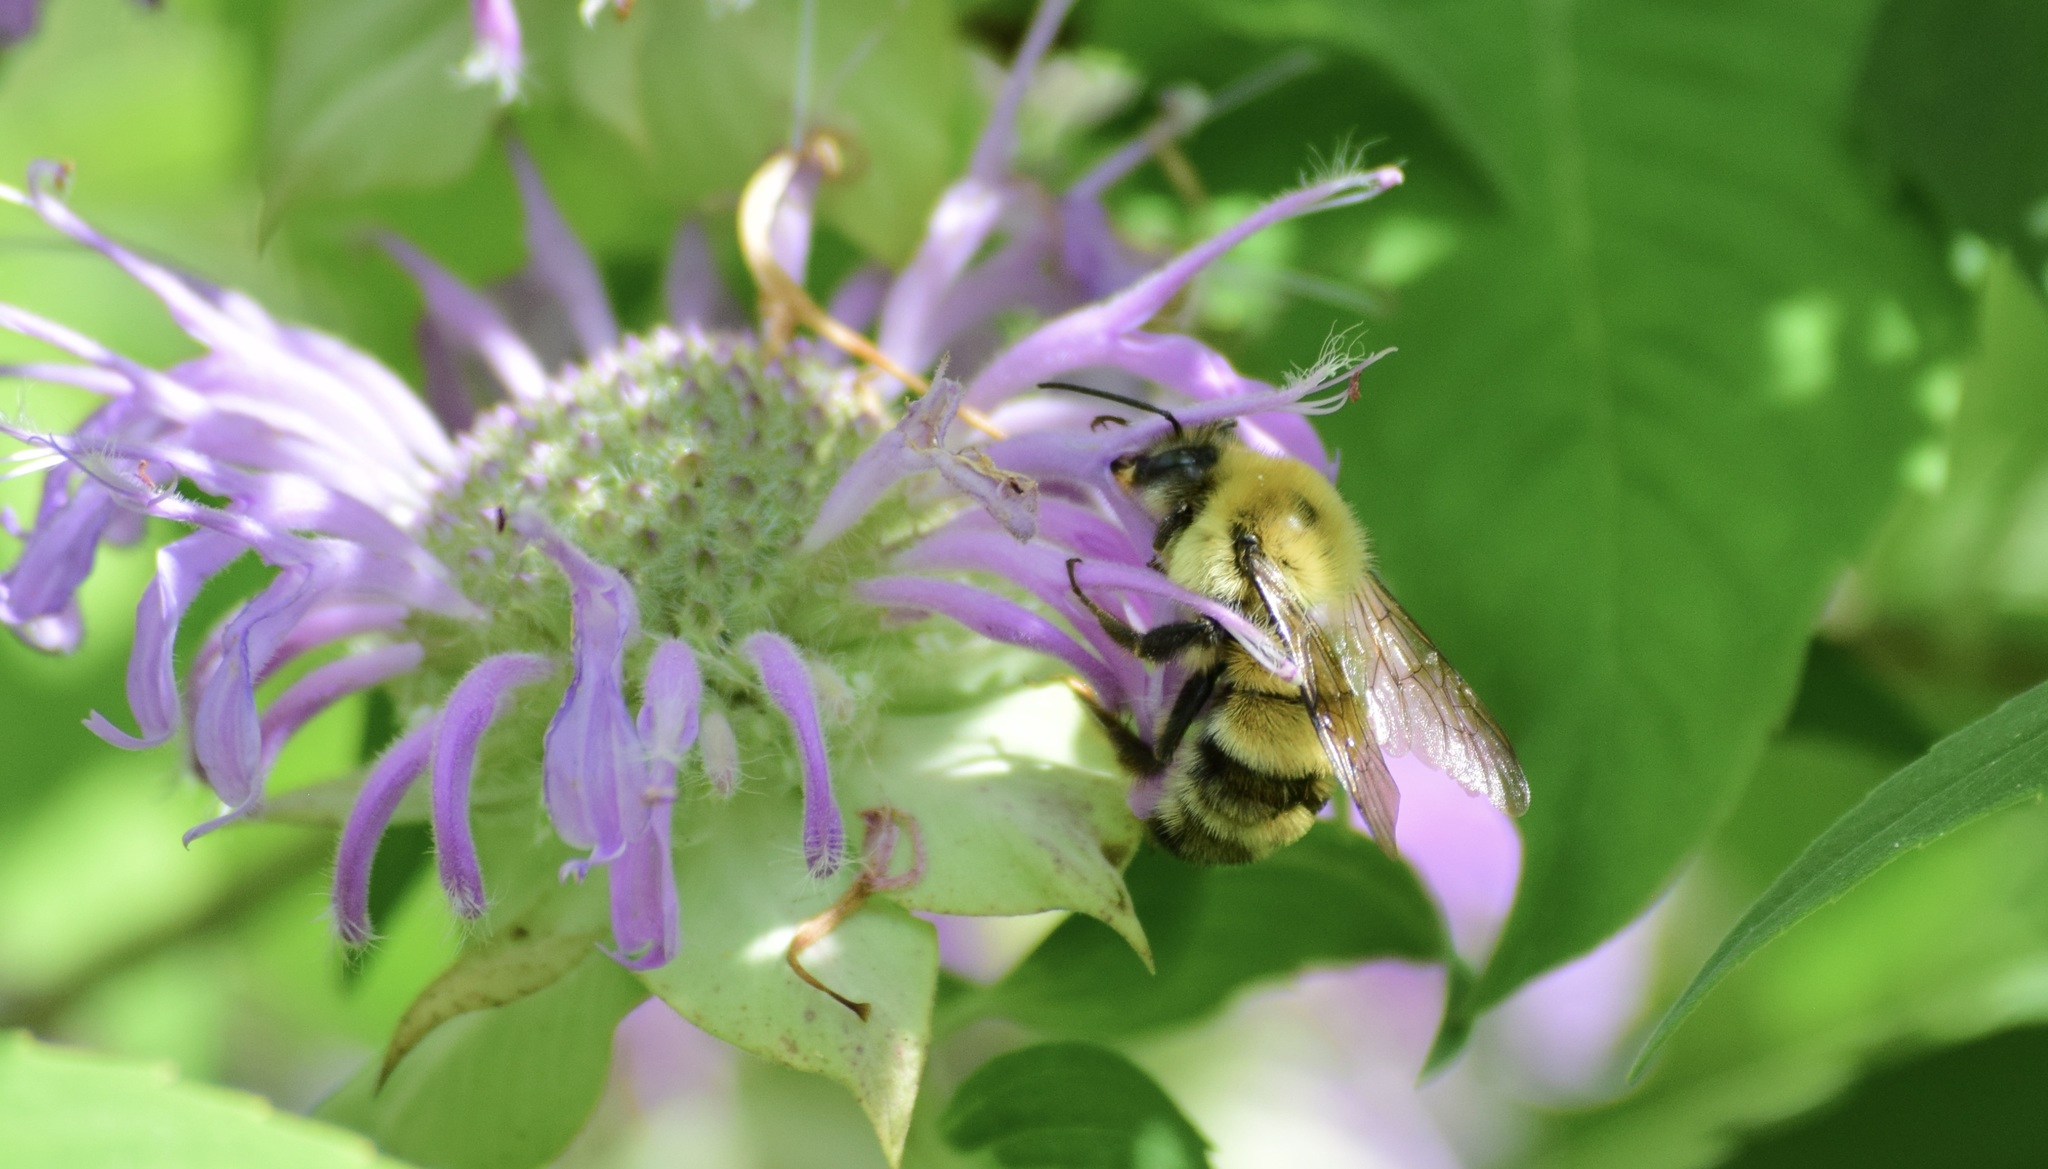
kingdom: Animalia
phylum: Arthropoda
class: Insecta
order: Hymenoptera
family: Apidae
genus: Bombus
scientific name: Bombus bimaculatus
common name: Two-spotted bumble bee
